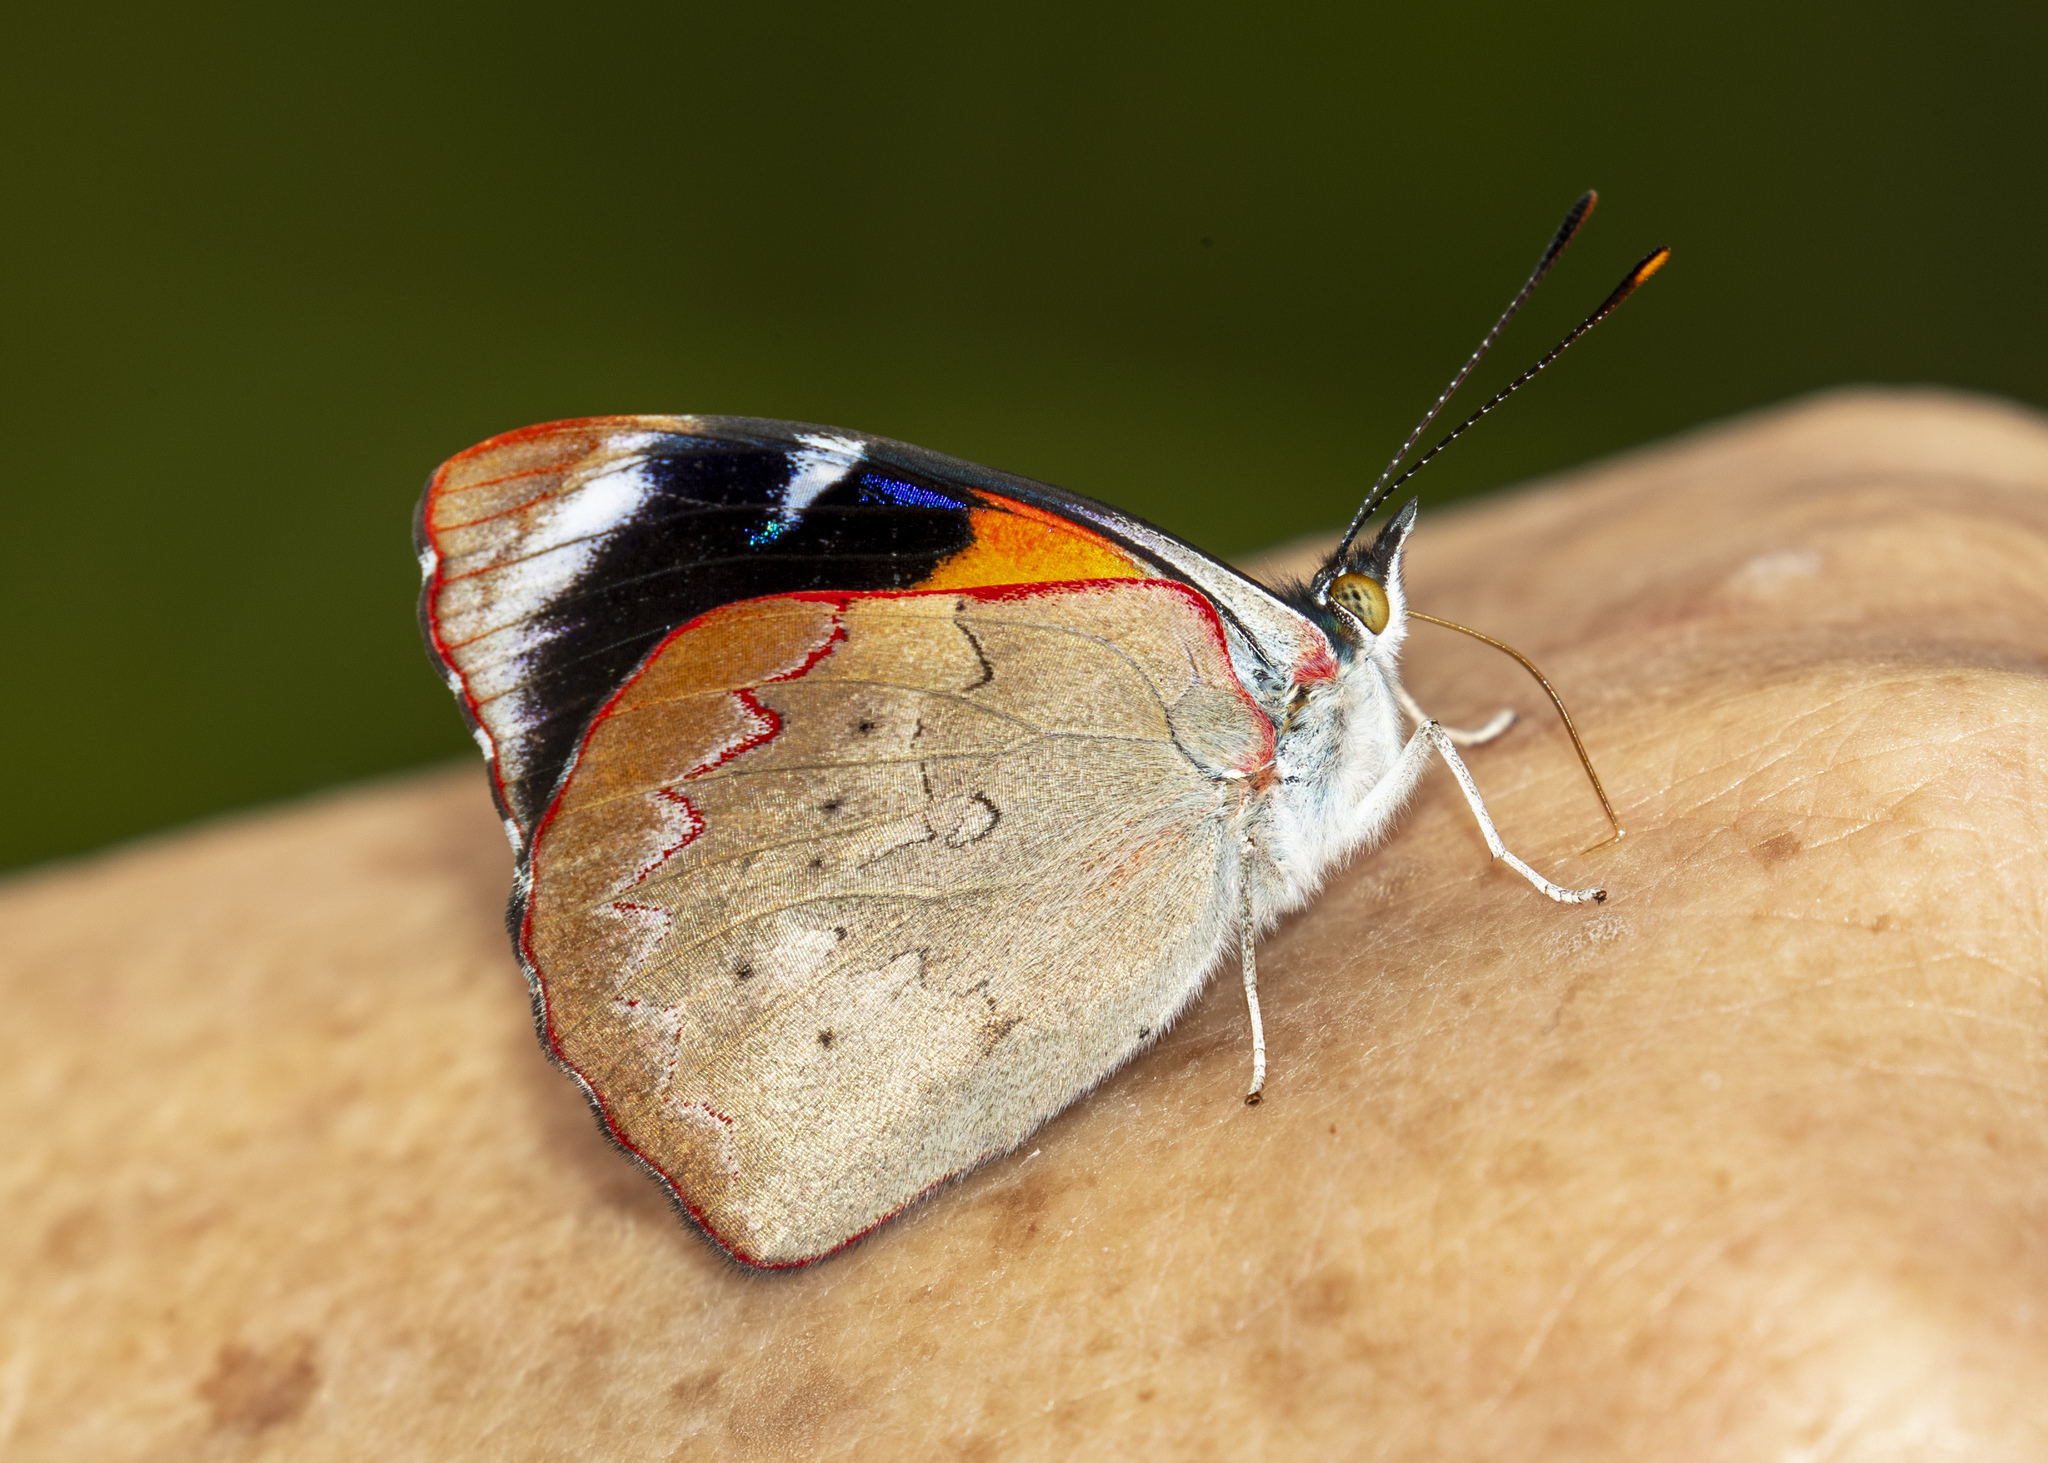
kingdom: Animalia
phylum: Arthropoda
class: Insecta
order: Lepidoptera
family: Nymphalidae
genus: Perisama
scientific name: Perisama calamis
